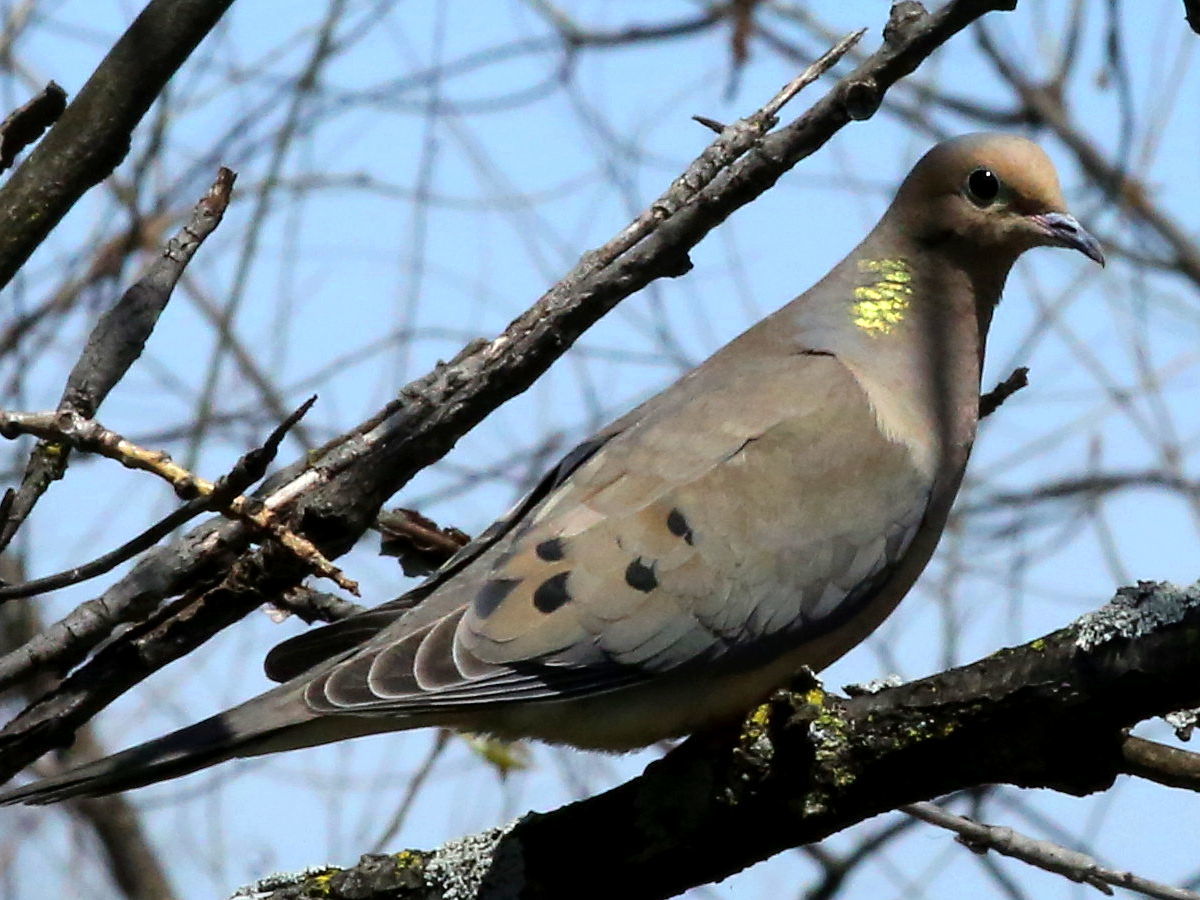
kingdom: Animalia
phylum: Chordata
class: Aves
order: Columbiformes
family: Columbidae
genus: Zenaida
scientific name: Zenaida macroura
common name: Mourning dove
